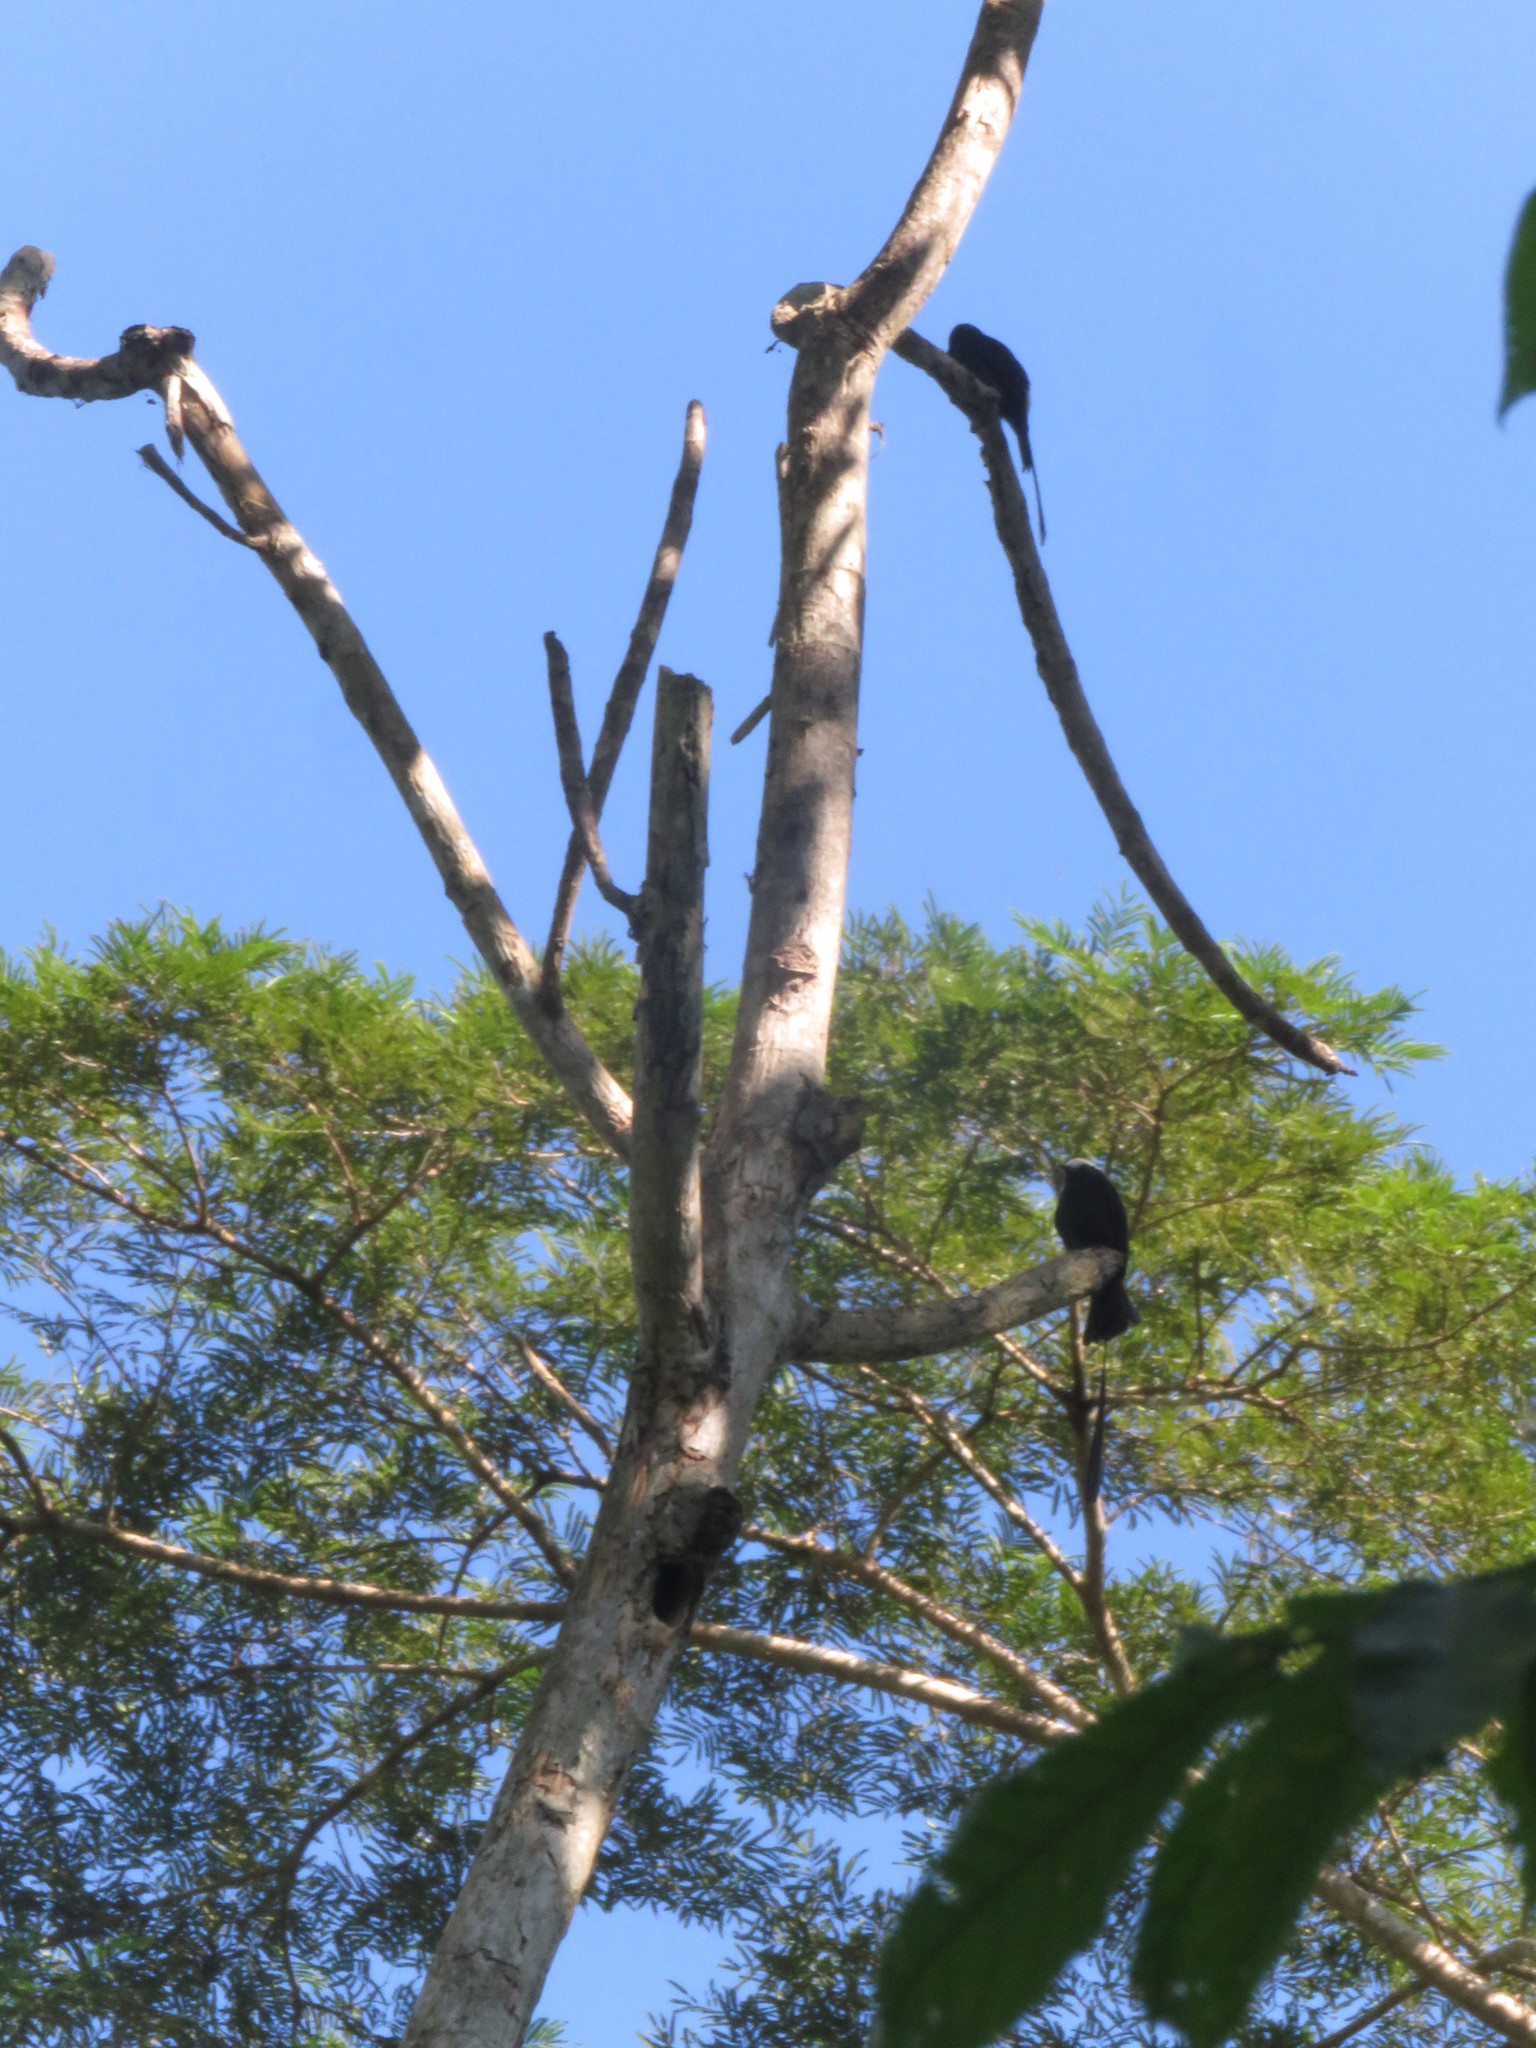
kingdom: Animalia
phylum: Chordata
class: Aves
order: Passeriformes
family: Tyrannidae
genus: Colonia
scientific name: Colonia colonus
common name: Long-tailed tyrant
